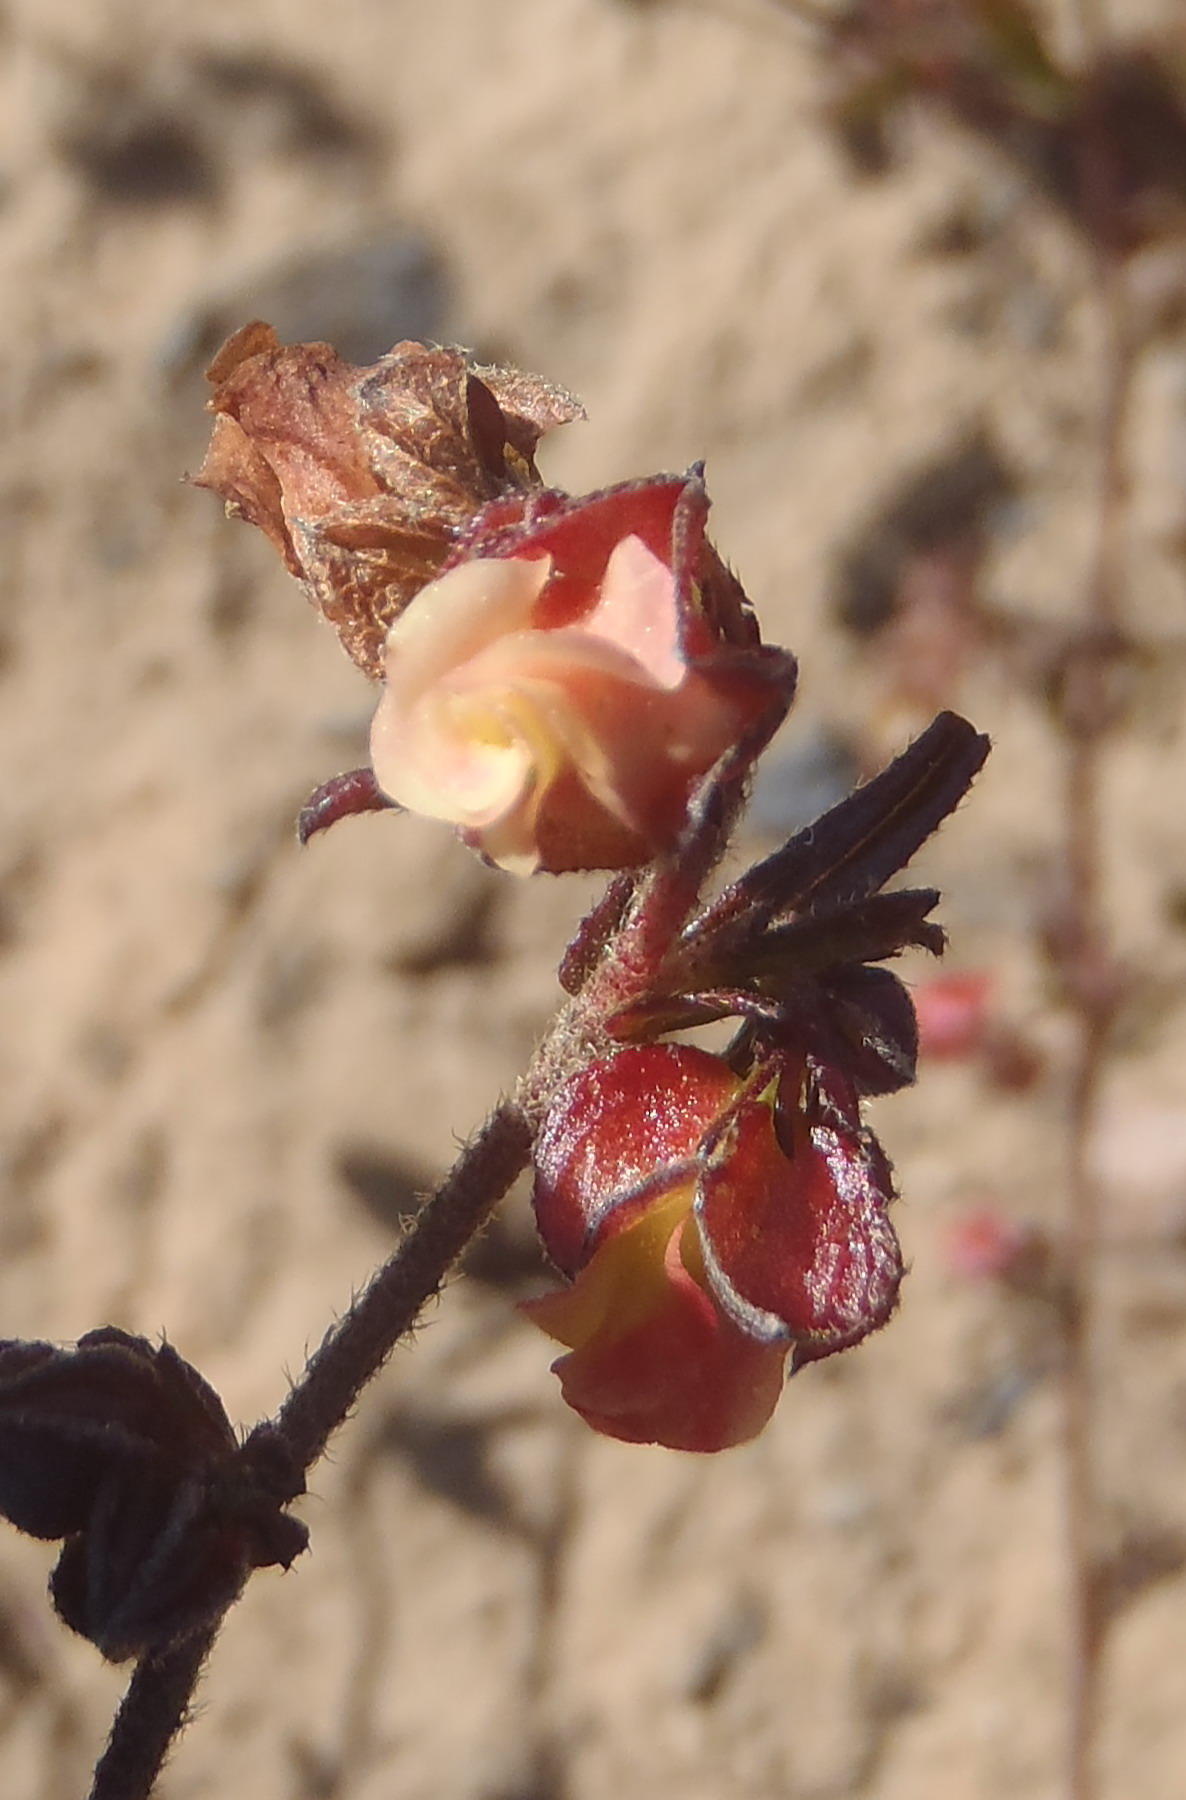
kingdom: Plantae
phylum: Tracheophyta
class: Magnoliopsida
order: Malvales
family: Malvaceae
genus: Hermannia
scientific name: Hermannia angularis
